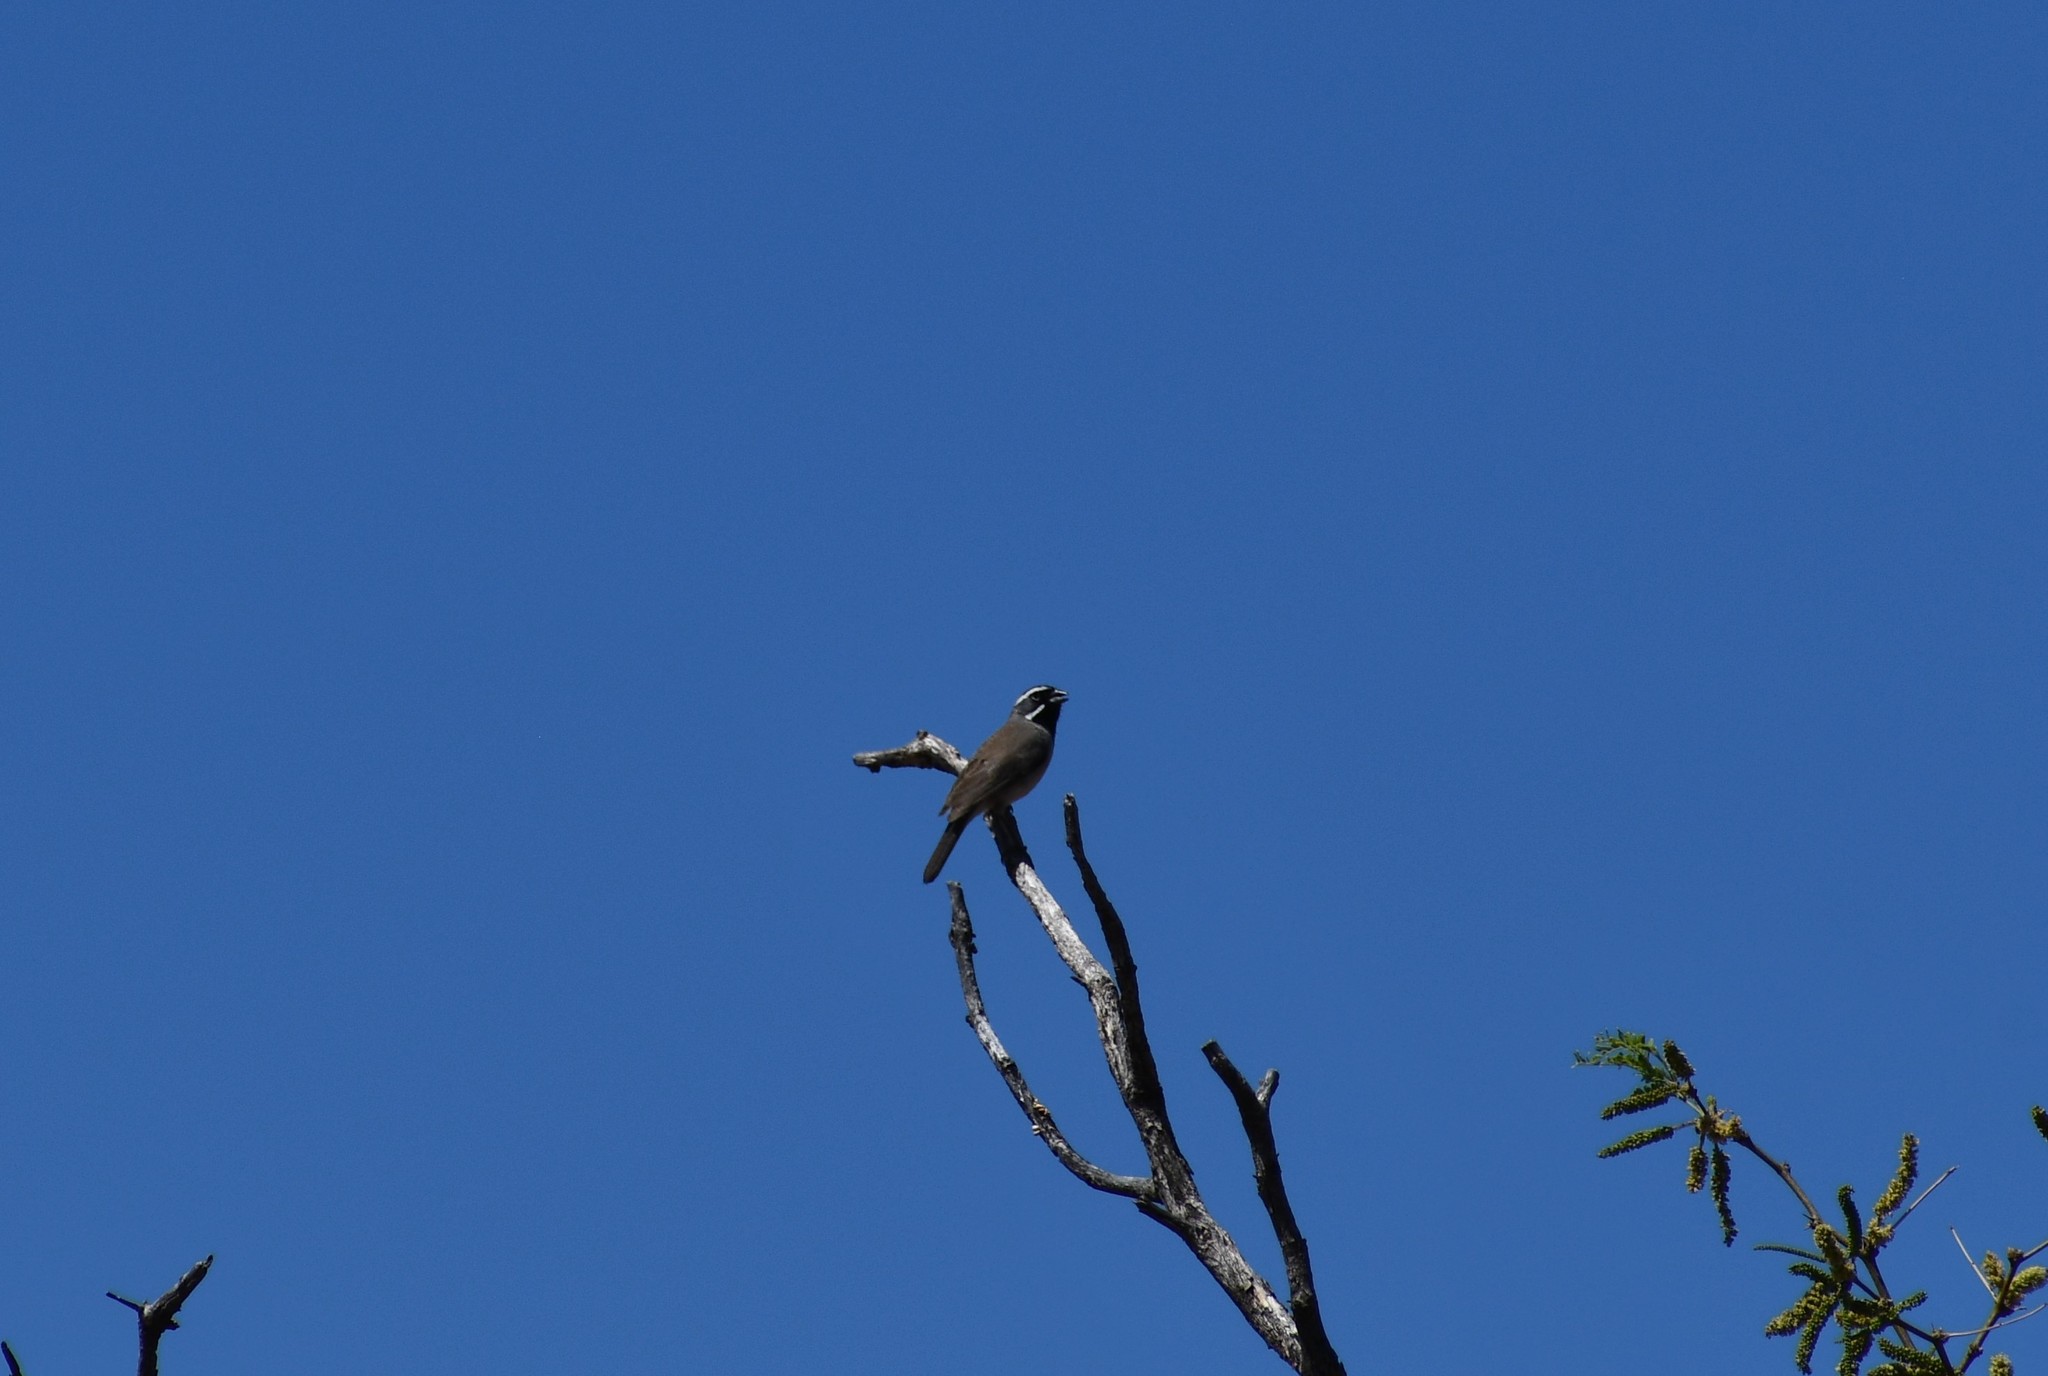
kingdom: Animalia
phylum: Chordata
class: Aves
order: Passeriformes
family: Passerellidae
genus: Amphispiza
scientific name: Amphispiza bilineata
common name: Black-throated sparrow
